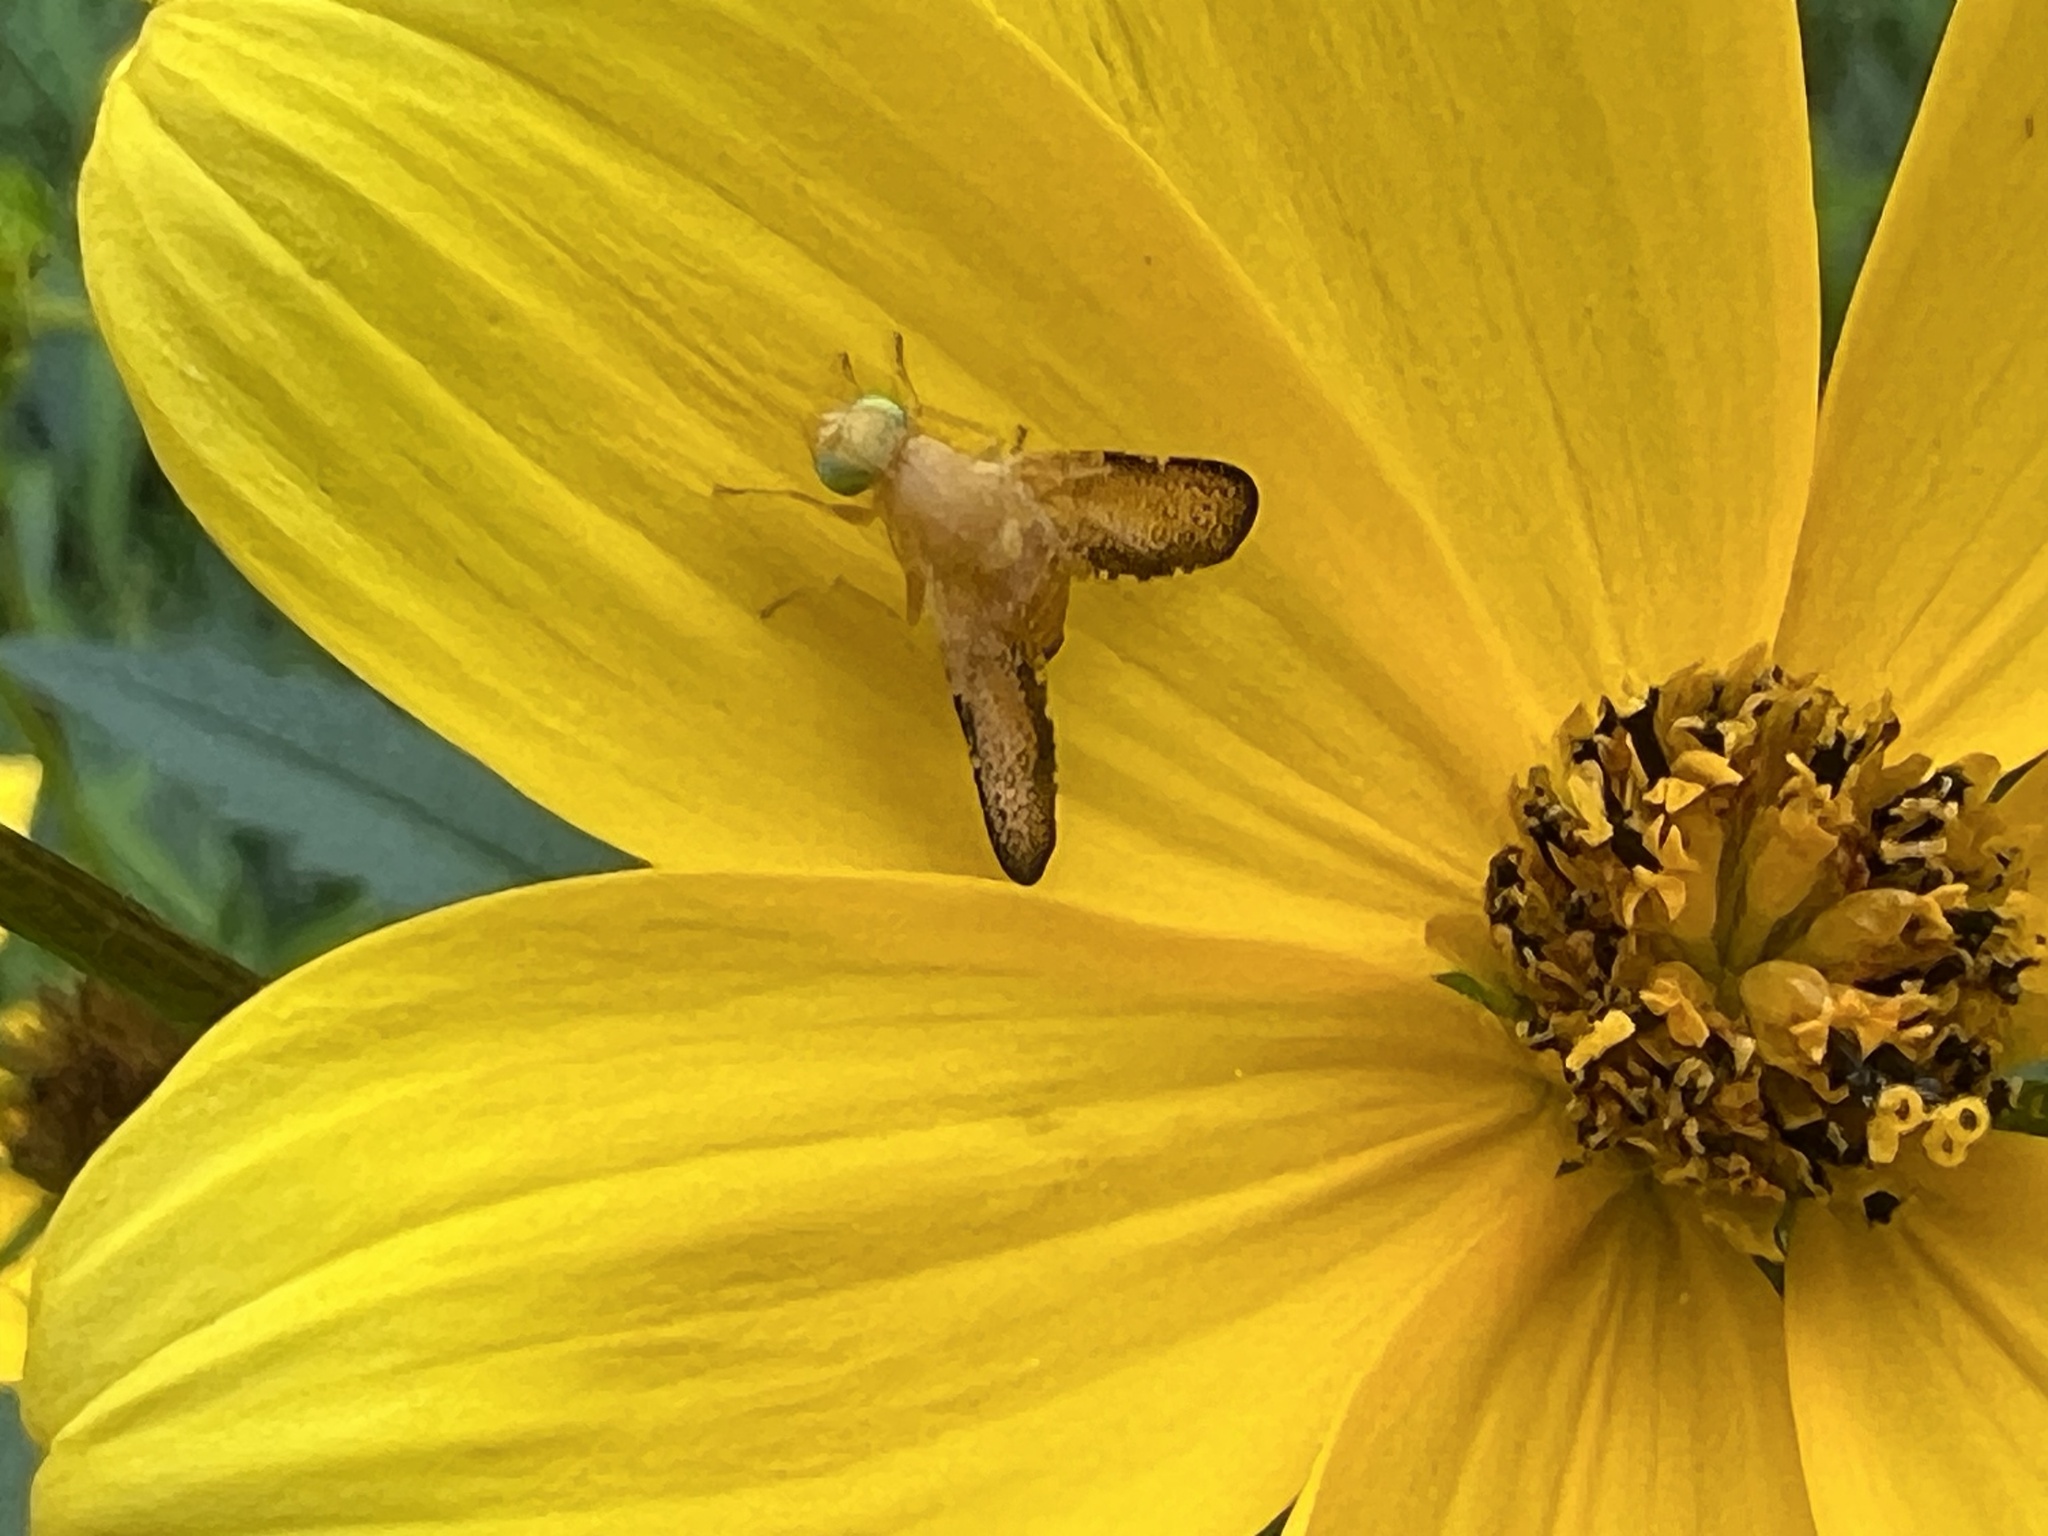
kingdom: Animalia
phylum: Arthropoda
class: Insecta
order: Diptera
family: Tephritidae
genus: Icterica
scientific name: Icterica seriata
